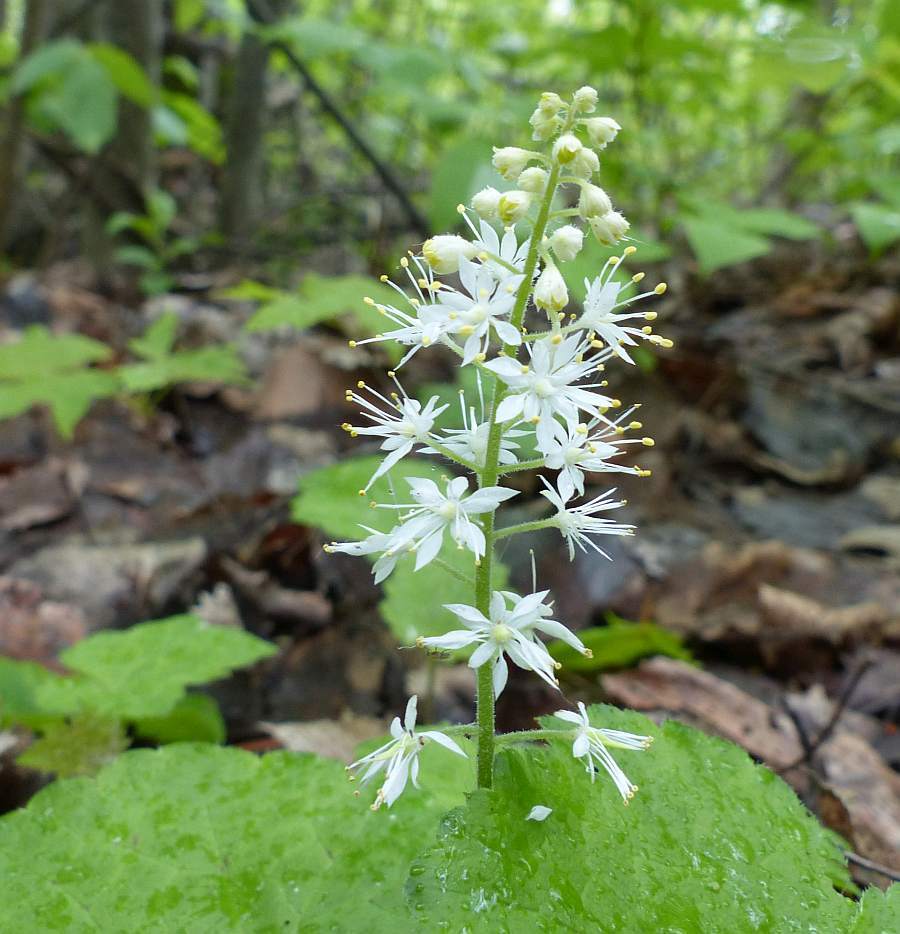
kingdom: Plantae
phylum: Tracheophyta
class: Magnoliopsida
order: Saxifragales
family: Saxifragaceae
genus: Tiarella
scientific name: Tiarella stolonifera
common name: Stoloniferous foamflower
